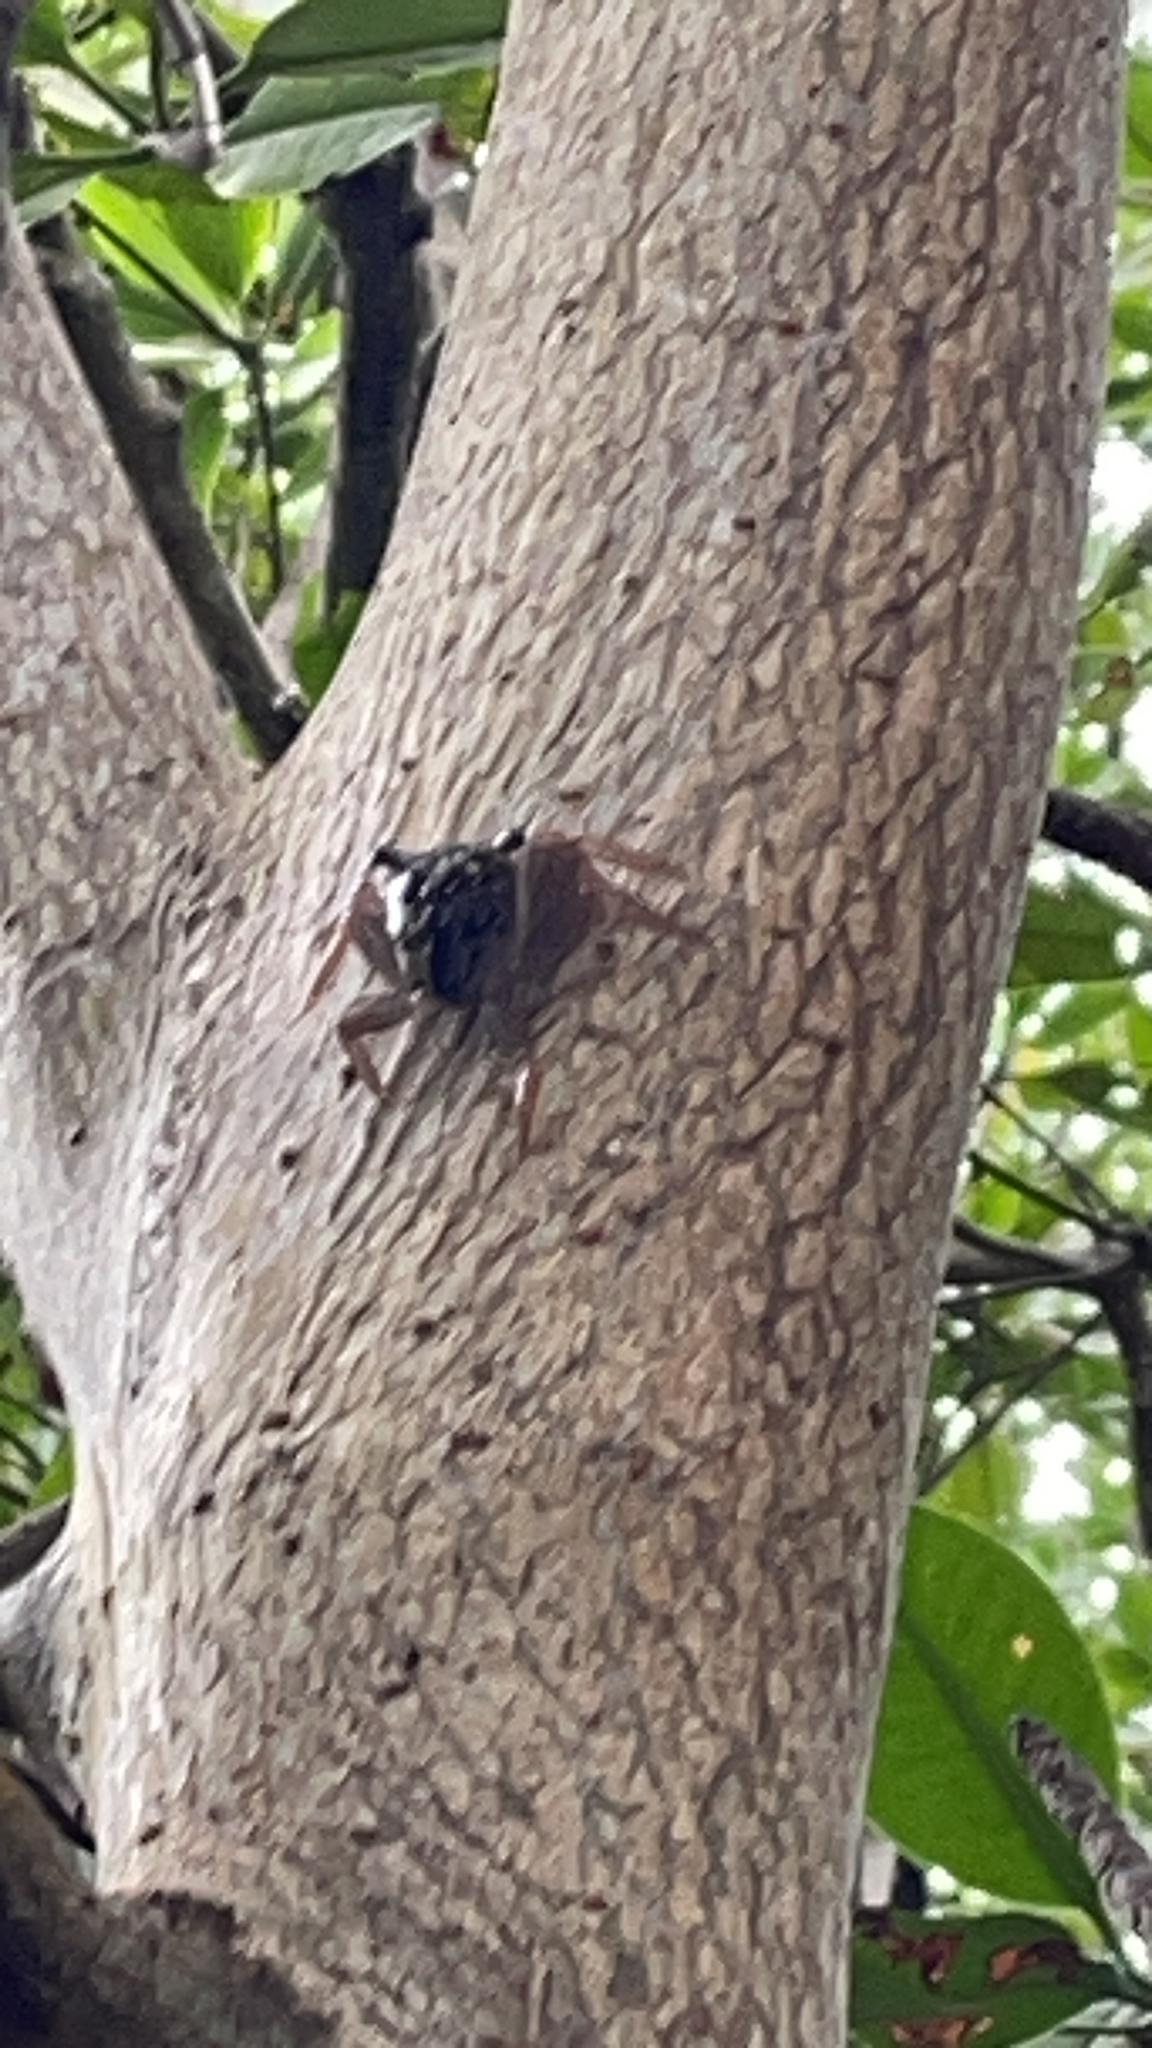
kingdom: Animalia
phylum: Arthropoda
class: Malacostraca
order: Decapoda
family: Sesarmidae
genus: Aratus
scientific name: Aratus pisonii
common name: Mangrove crab
